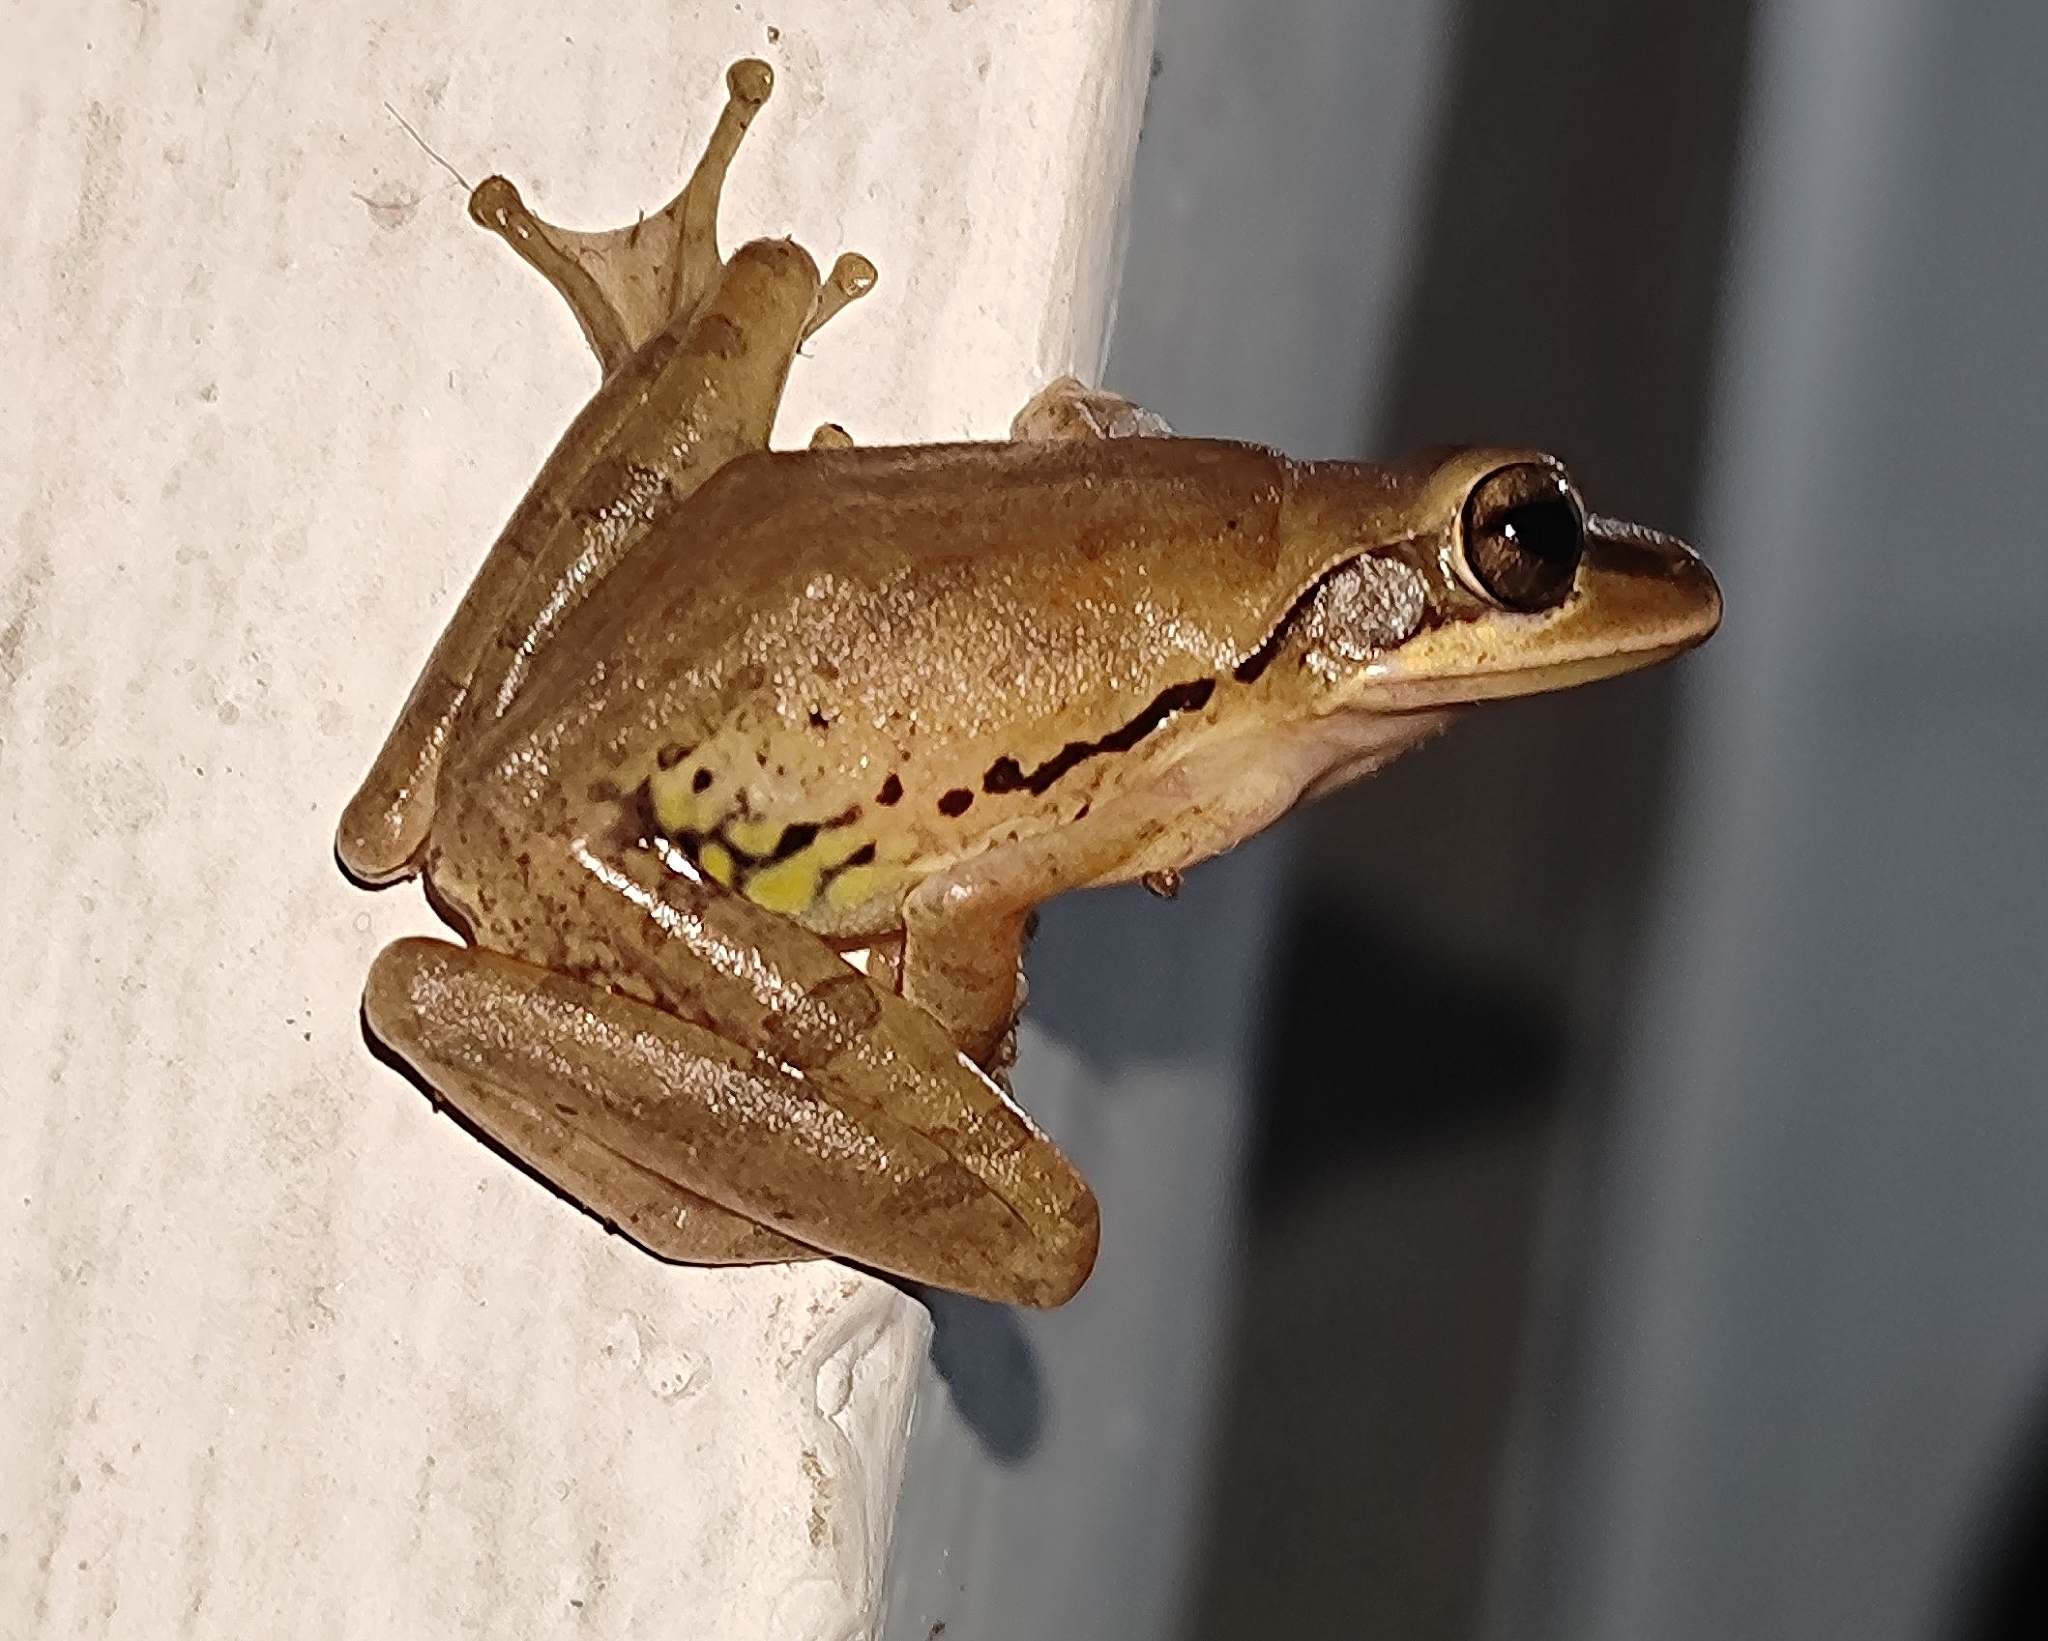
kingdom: Animalia
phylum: Chordata
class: Amphibia
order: Anura
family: Rhacophoridae
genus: Polypedates
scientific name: Polypedates maculatus
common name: Himalayan tree frog
